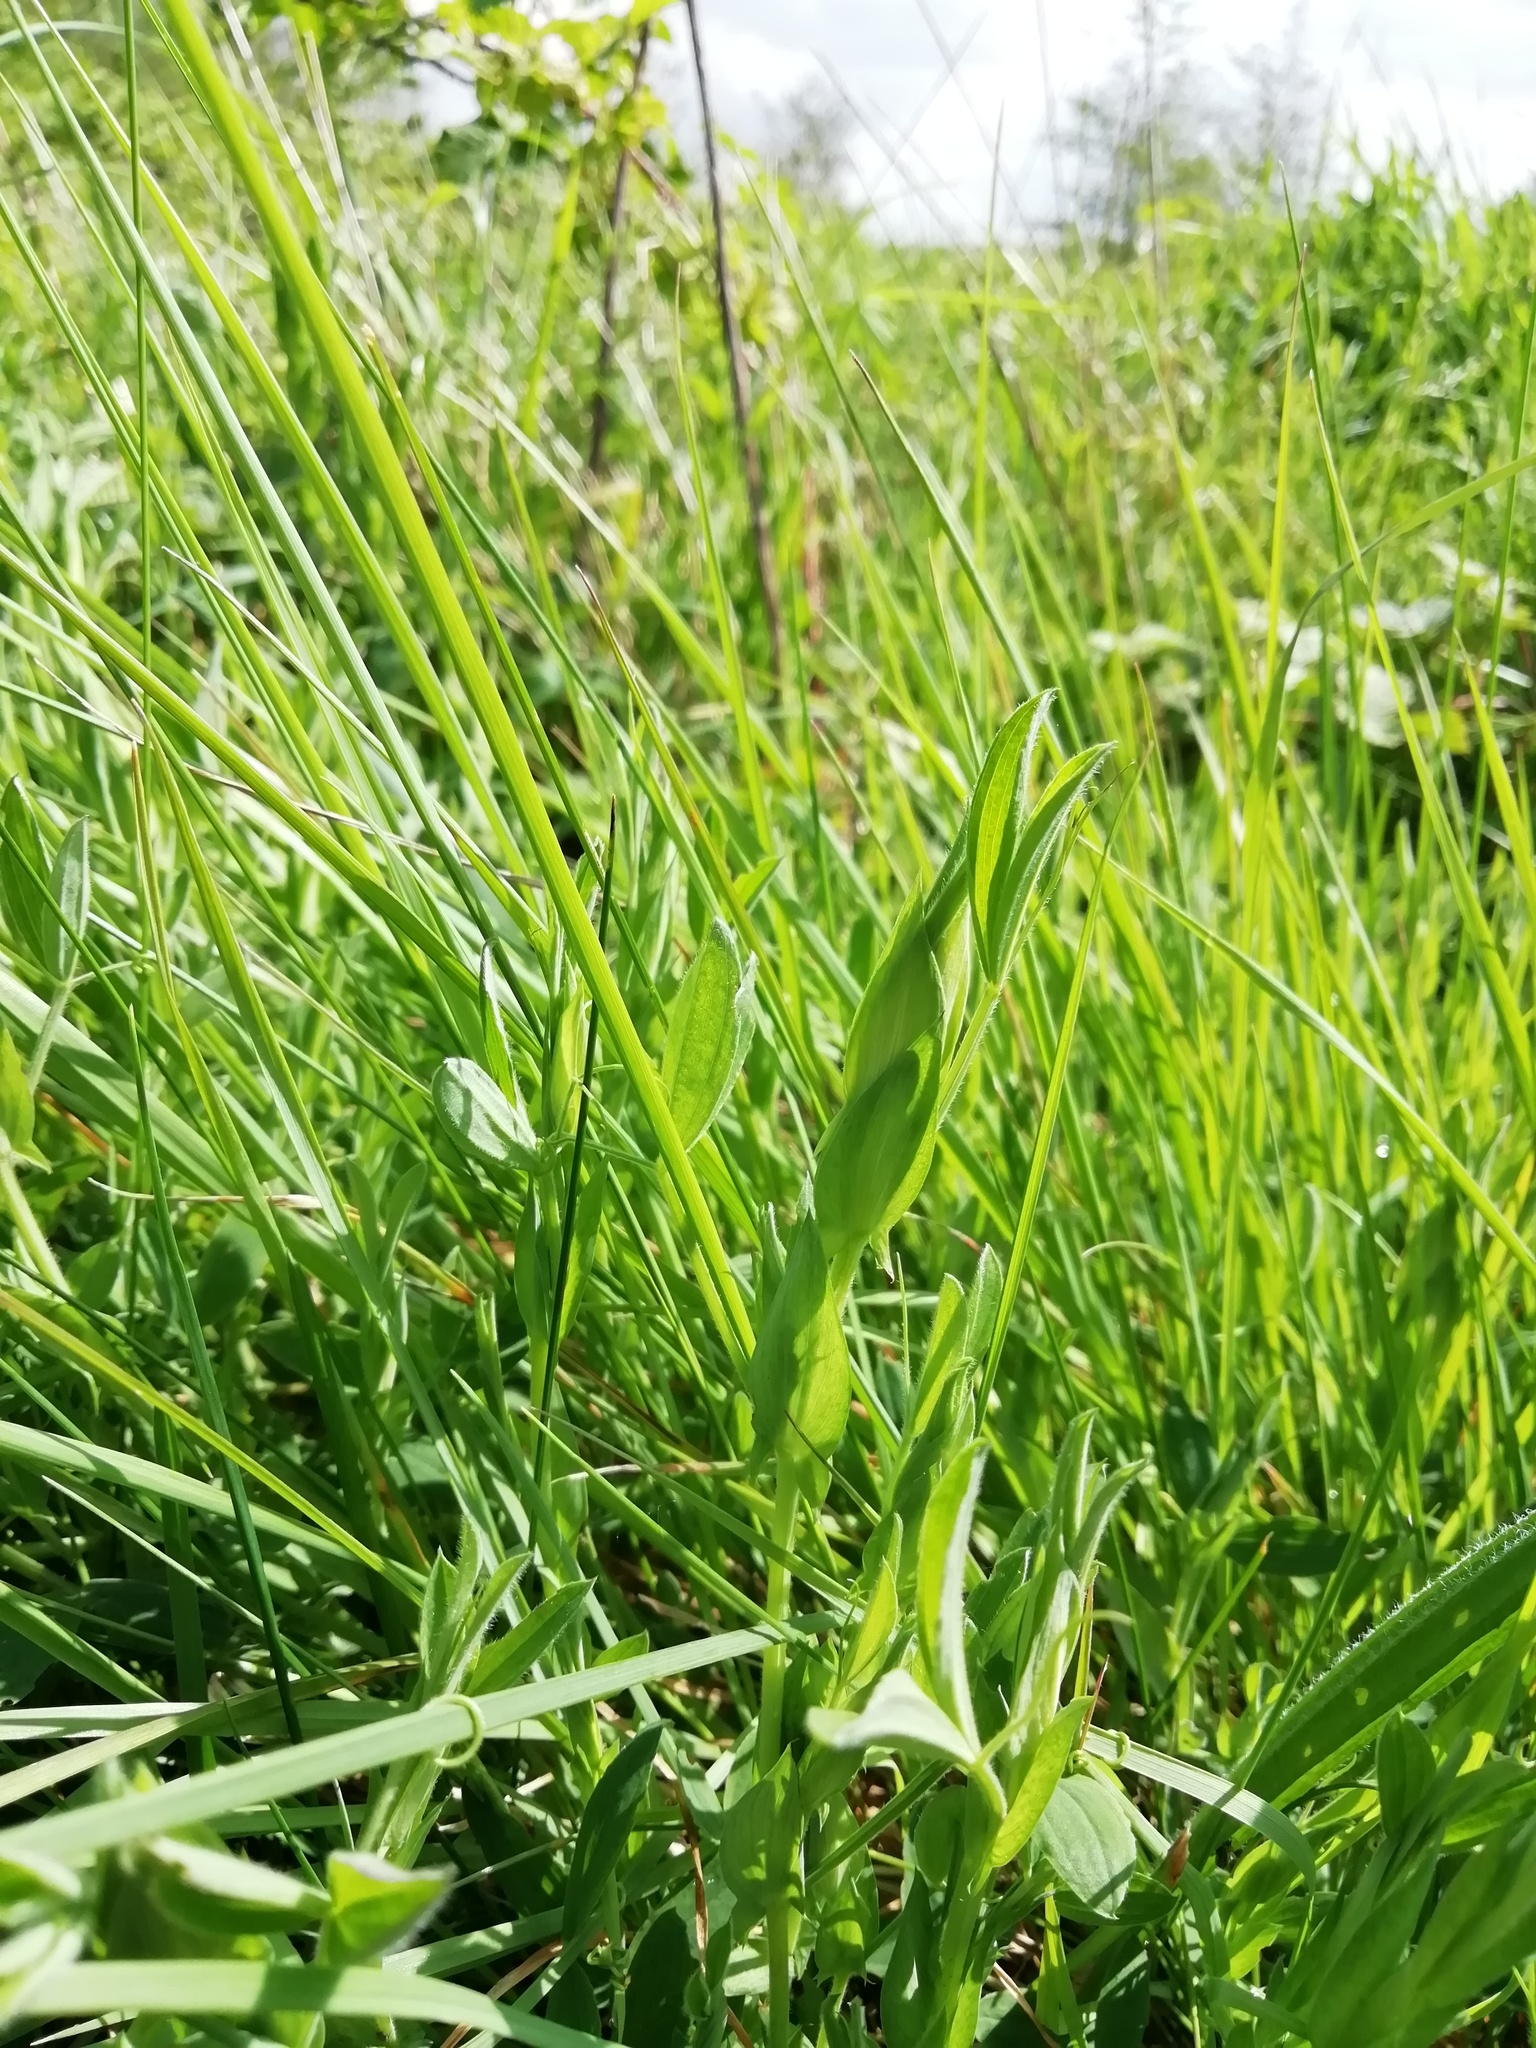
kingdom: Plantae
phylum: Tracheophyta
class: Magnoliopsida
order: Fabales
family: Fabaceae
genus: Lathyrus
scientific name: Lathyrus pratensis
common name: Meadow vetchling
